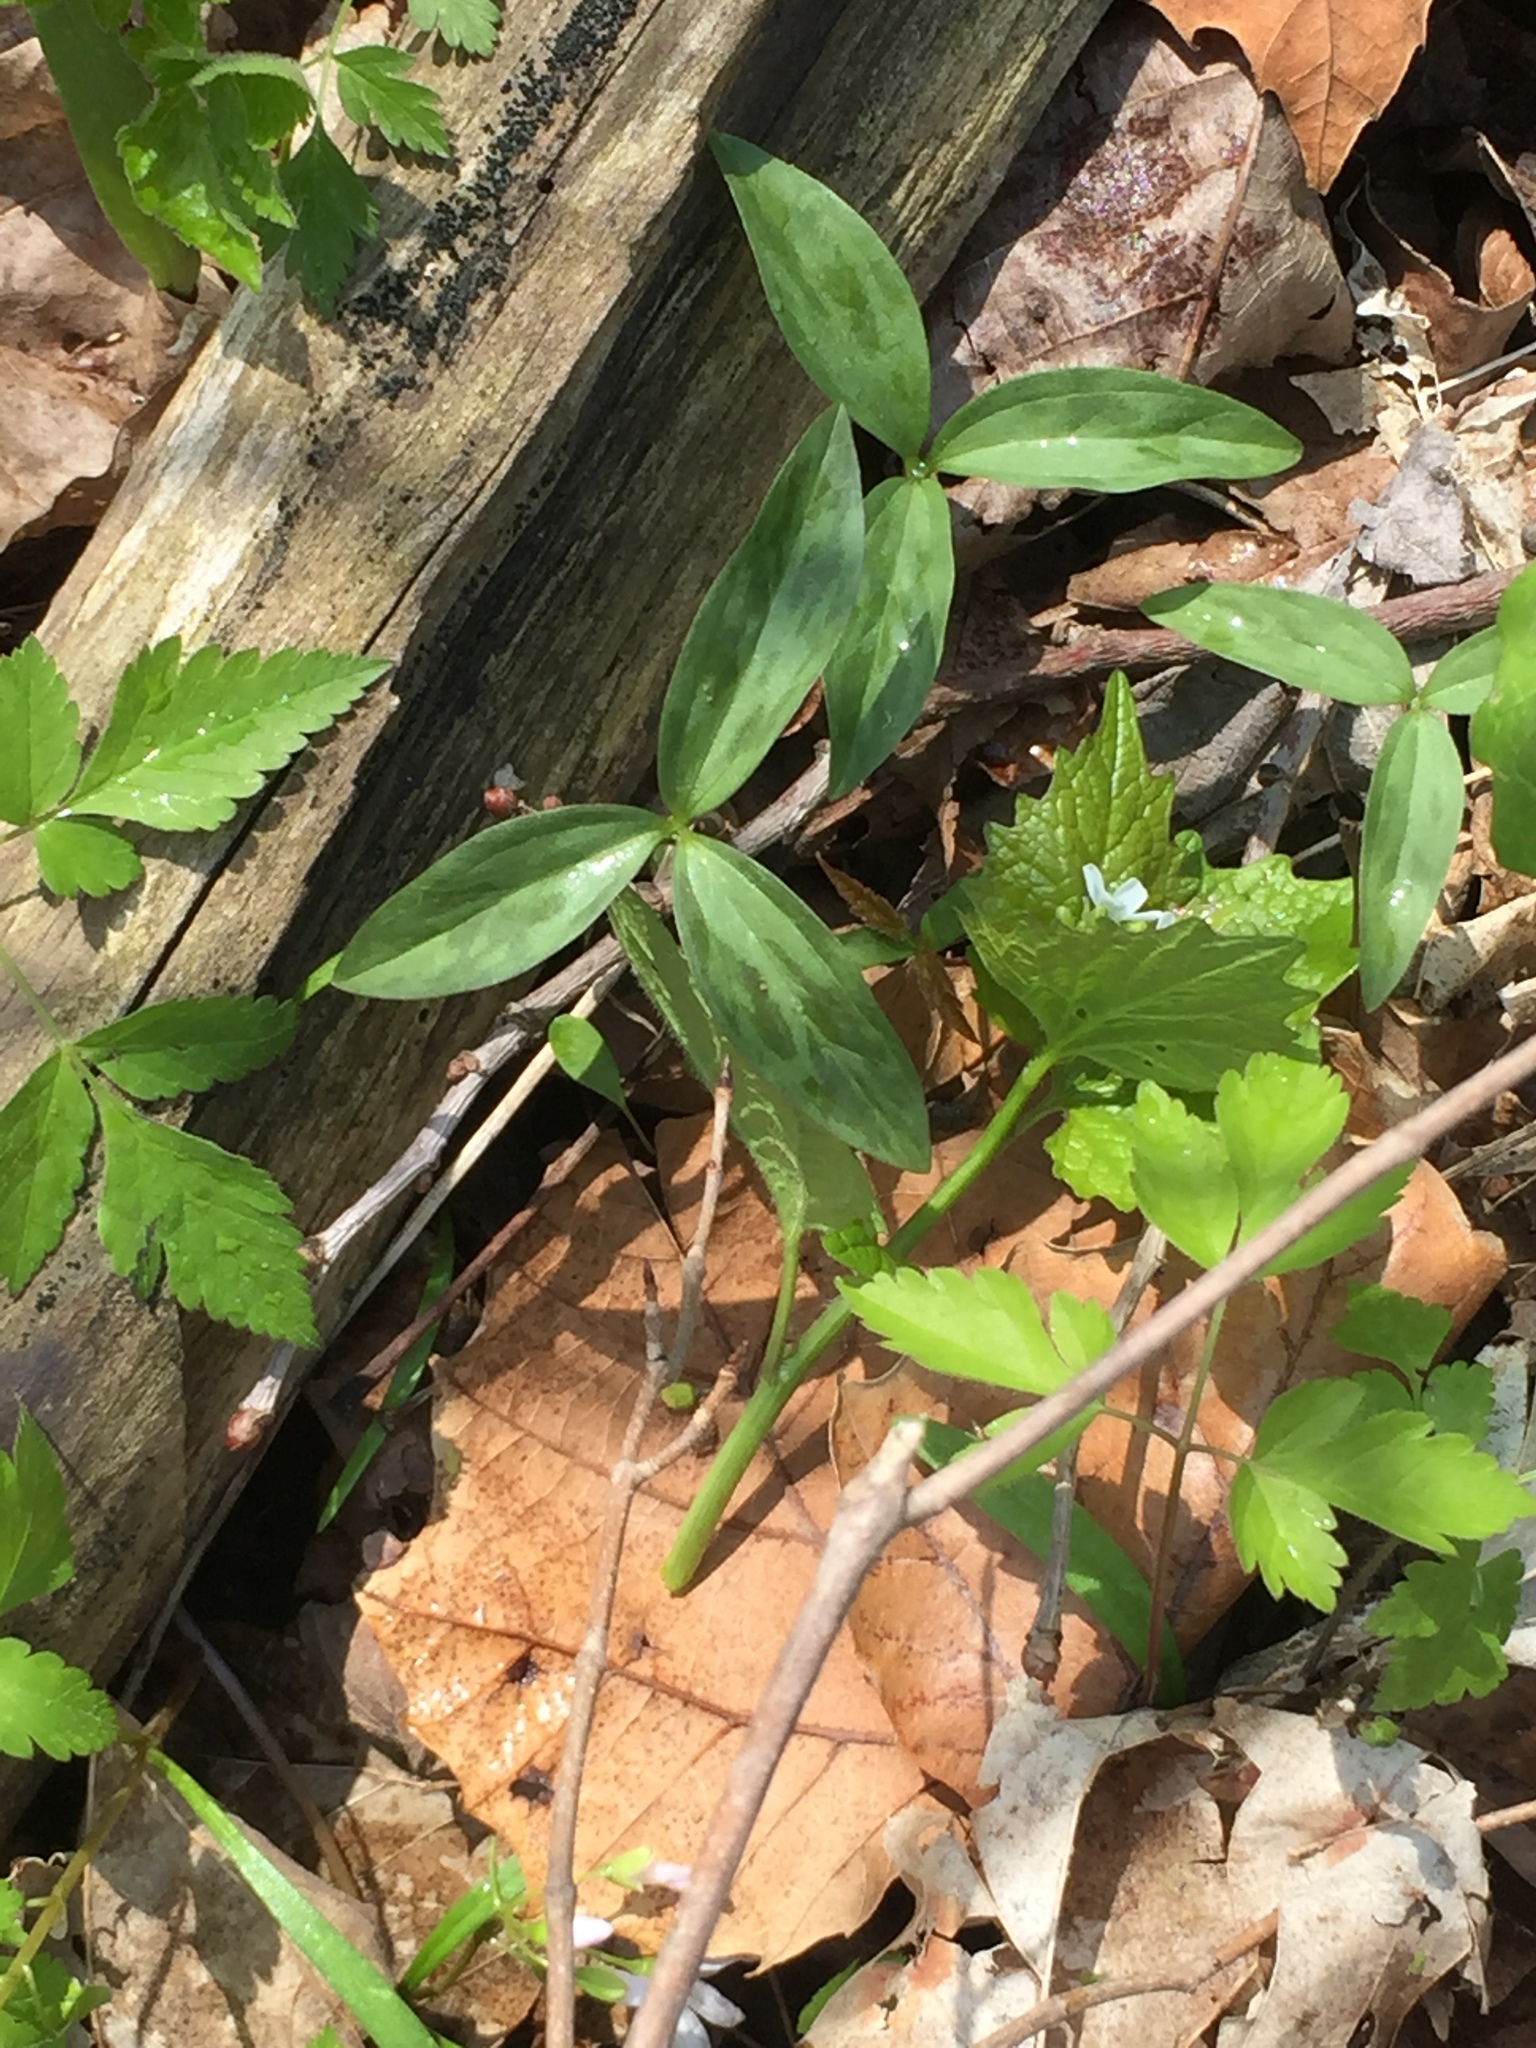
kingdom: Plantae
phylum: Tracheophyta
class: Liliopsida
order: Liliales
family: Melanthiaceae
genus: Trillium
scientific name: Trillium recurvatum
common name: Bloody butcher
